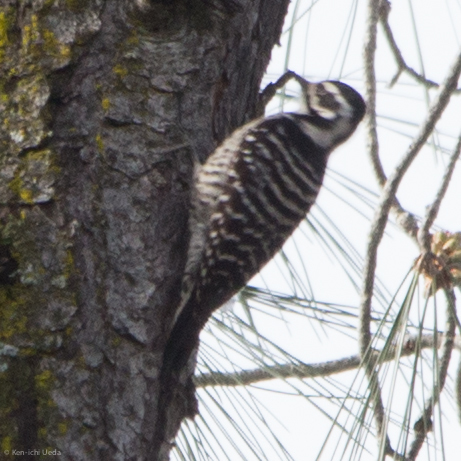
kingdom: Animalia
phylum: Chordata
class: Aves
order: Piciformes
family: Picidae
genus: Dryobates
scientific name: Dryobates nuttallii
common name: Nuttall's woodpecker
